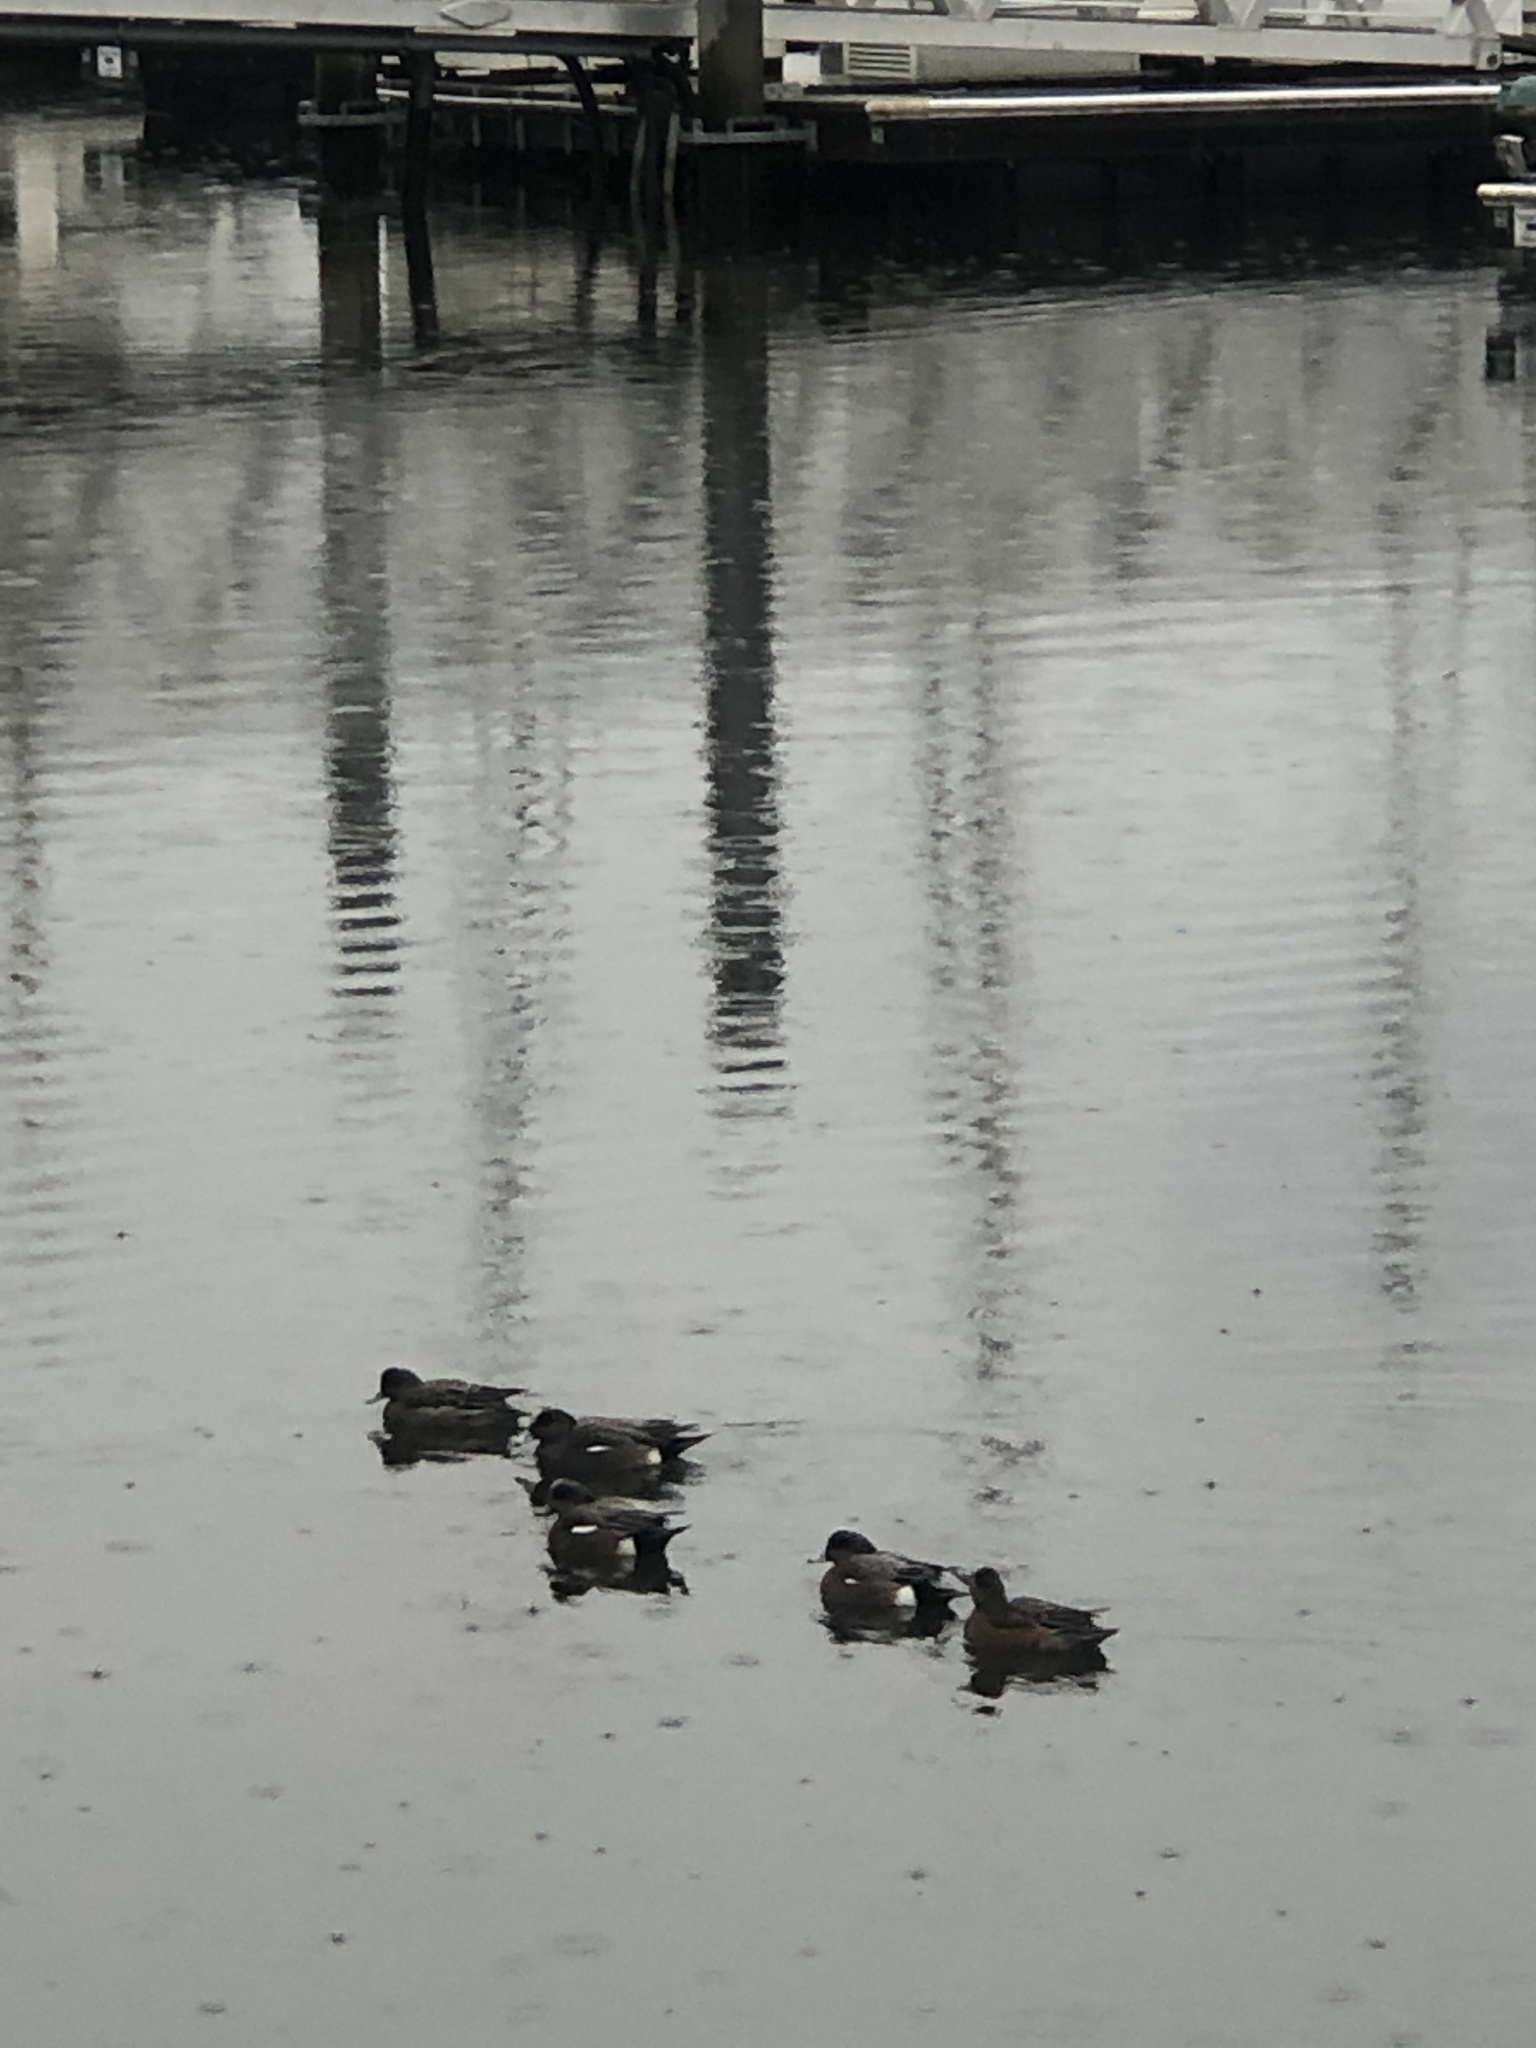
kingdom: Animalia
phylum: Chordata
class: Aves
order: Anseriformes
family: Anatidae
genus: Mareca
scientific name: Mareca americana
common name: American wigeon
